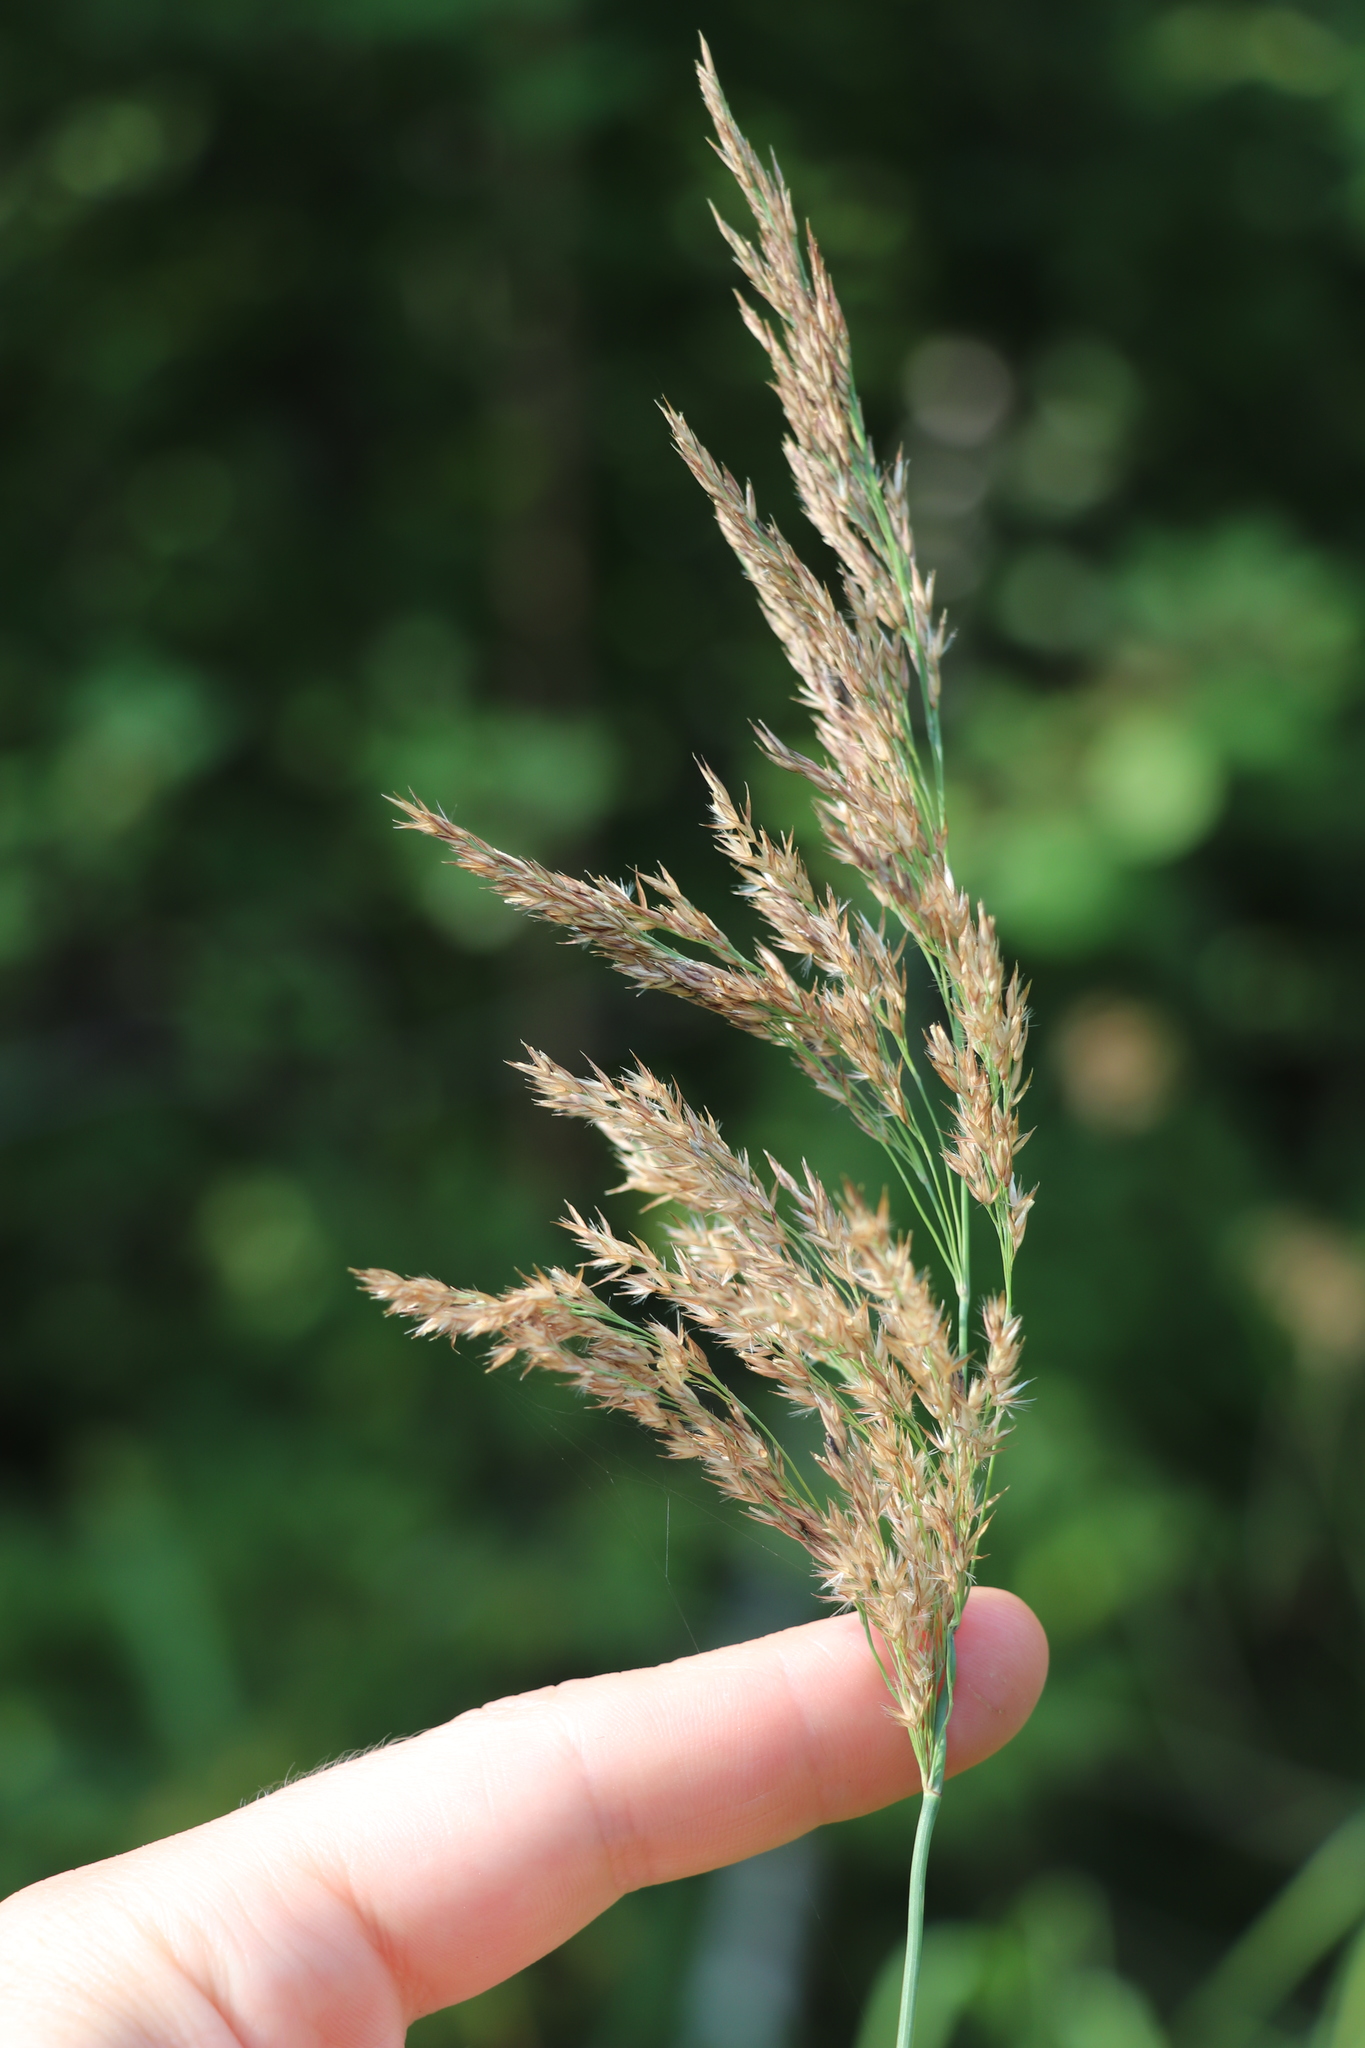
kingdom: Plantae
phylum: Tracheophyta
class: Liliopsida
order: Poales
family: Poaceae
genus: Calamagrostis
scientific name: Calamagrostis purpurea
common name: Scandinavian small-reed
